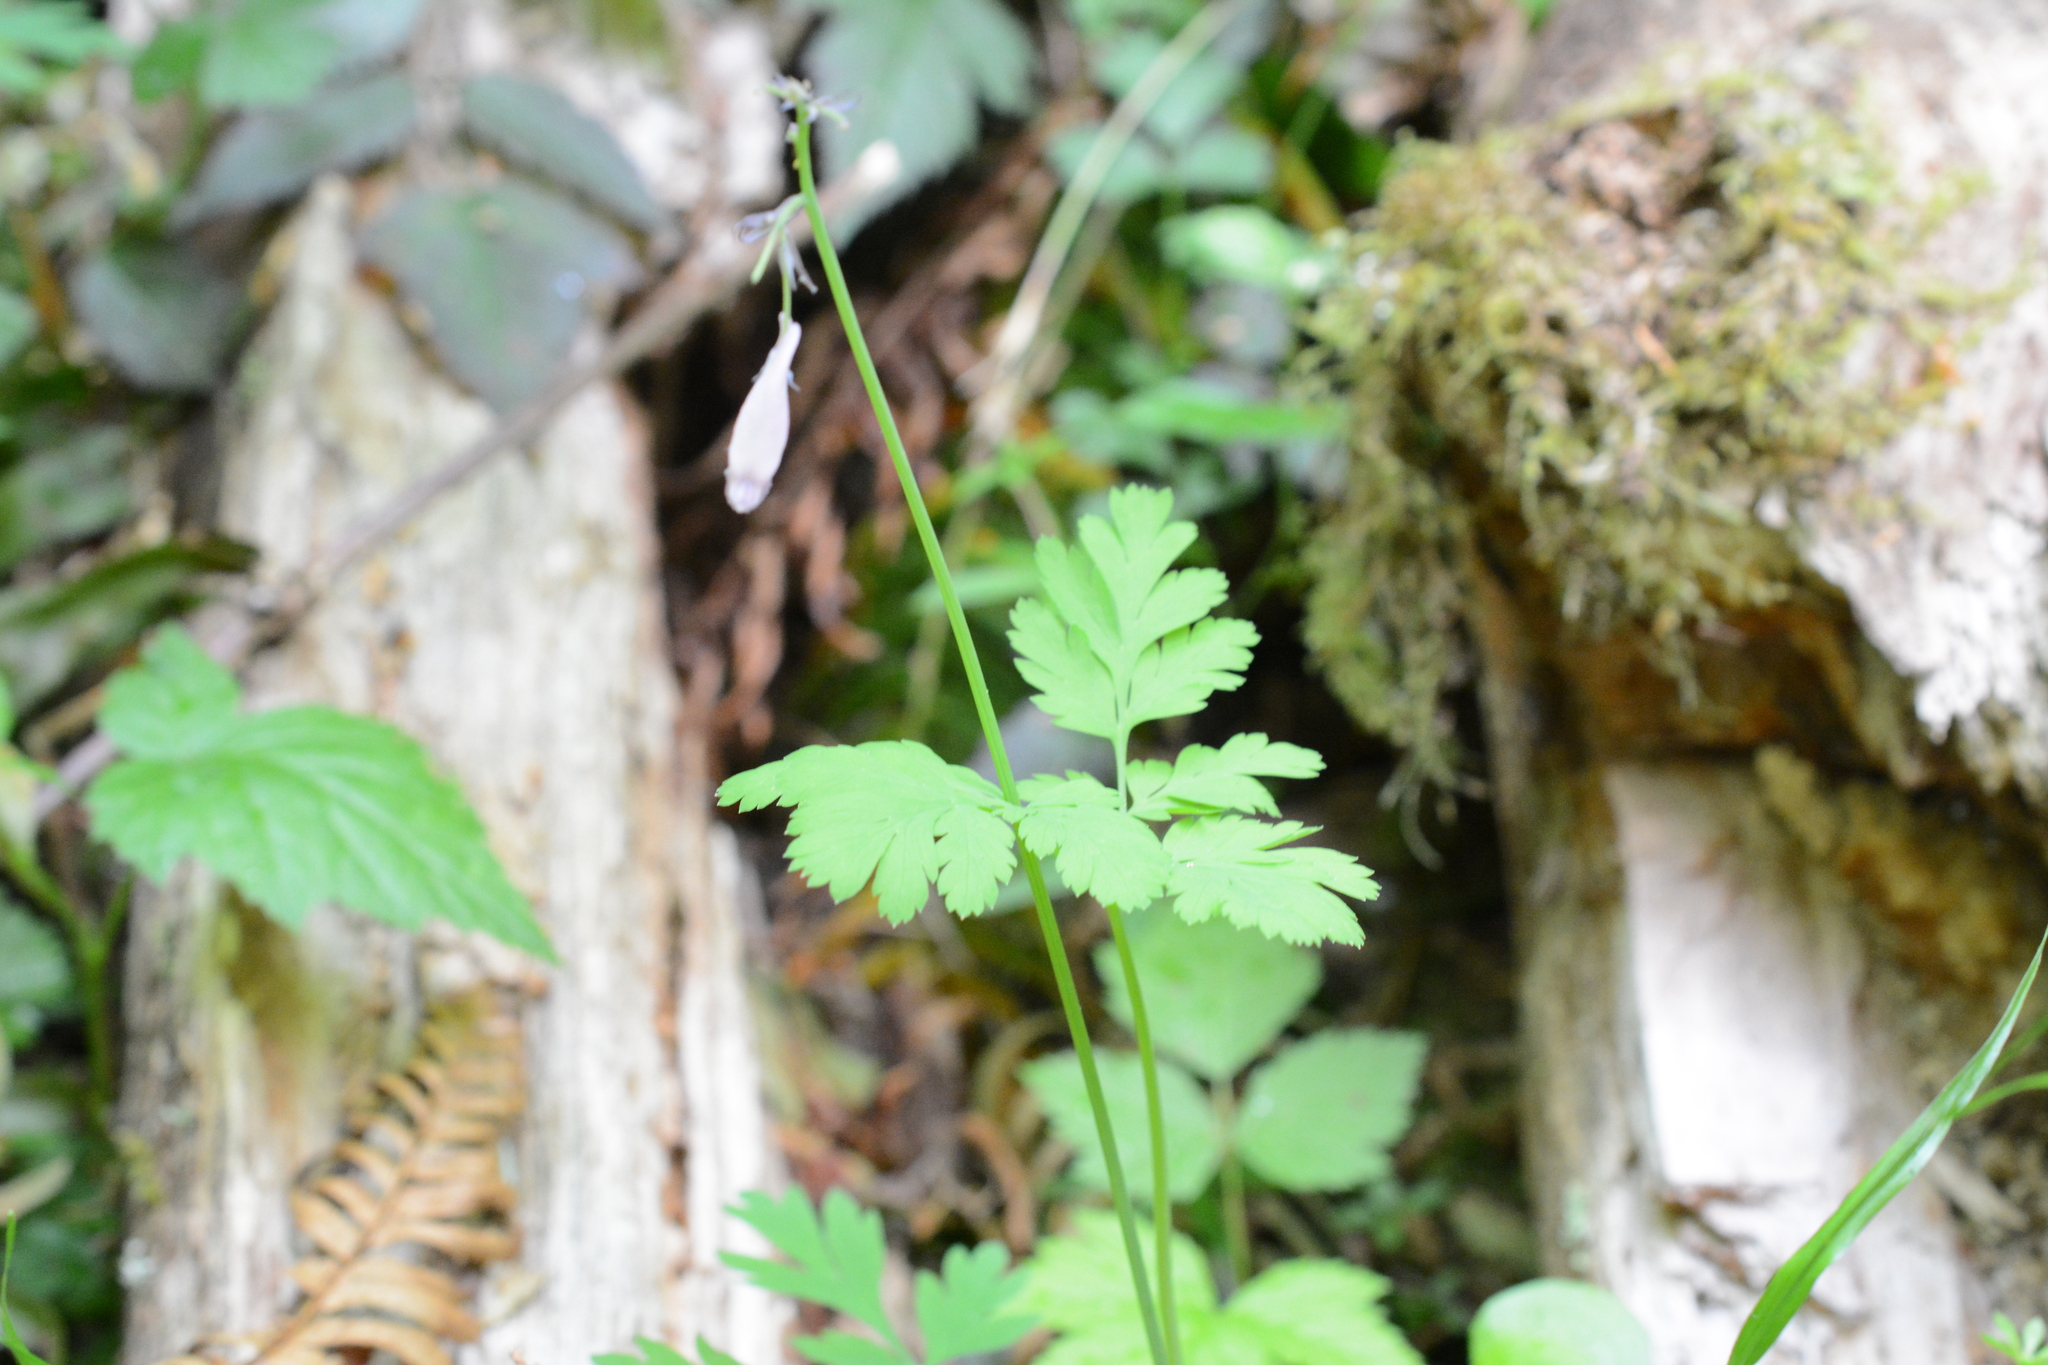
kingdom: Plantae
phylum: Tracheophyta
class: Magnoliopsida
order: Ranunculales
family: Papaveraceae
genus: Dicentra
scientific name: Dicentra formosa
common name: Bleeding-heart
